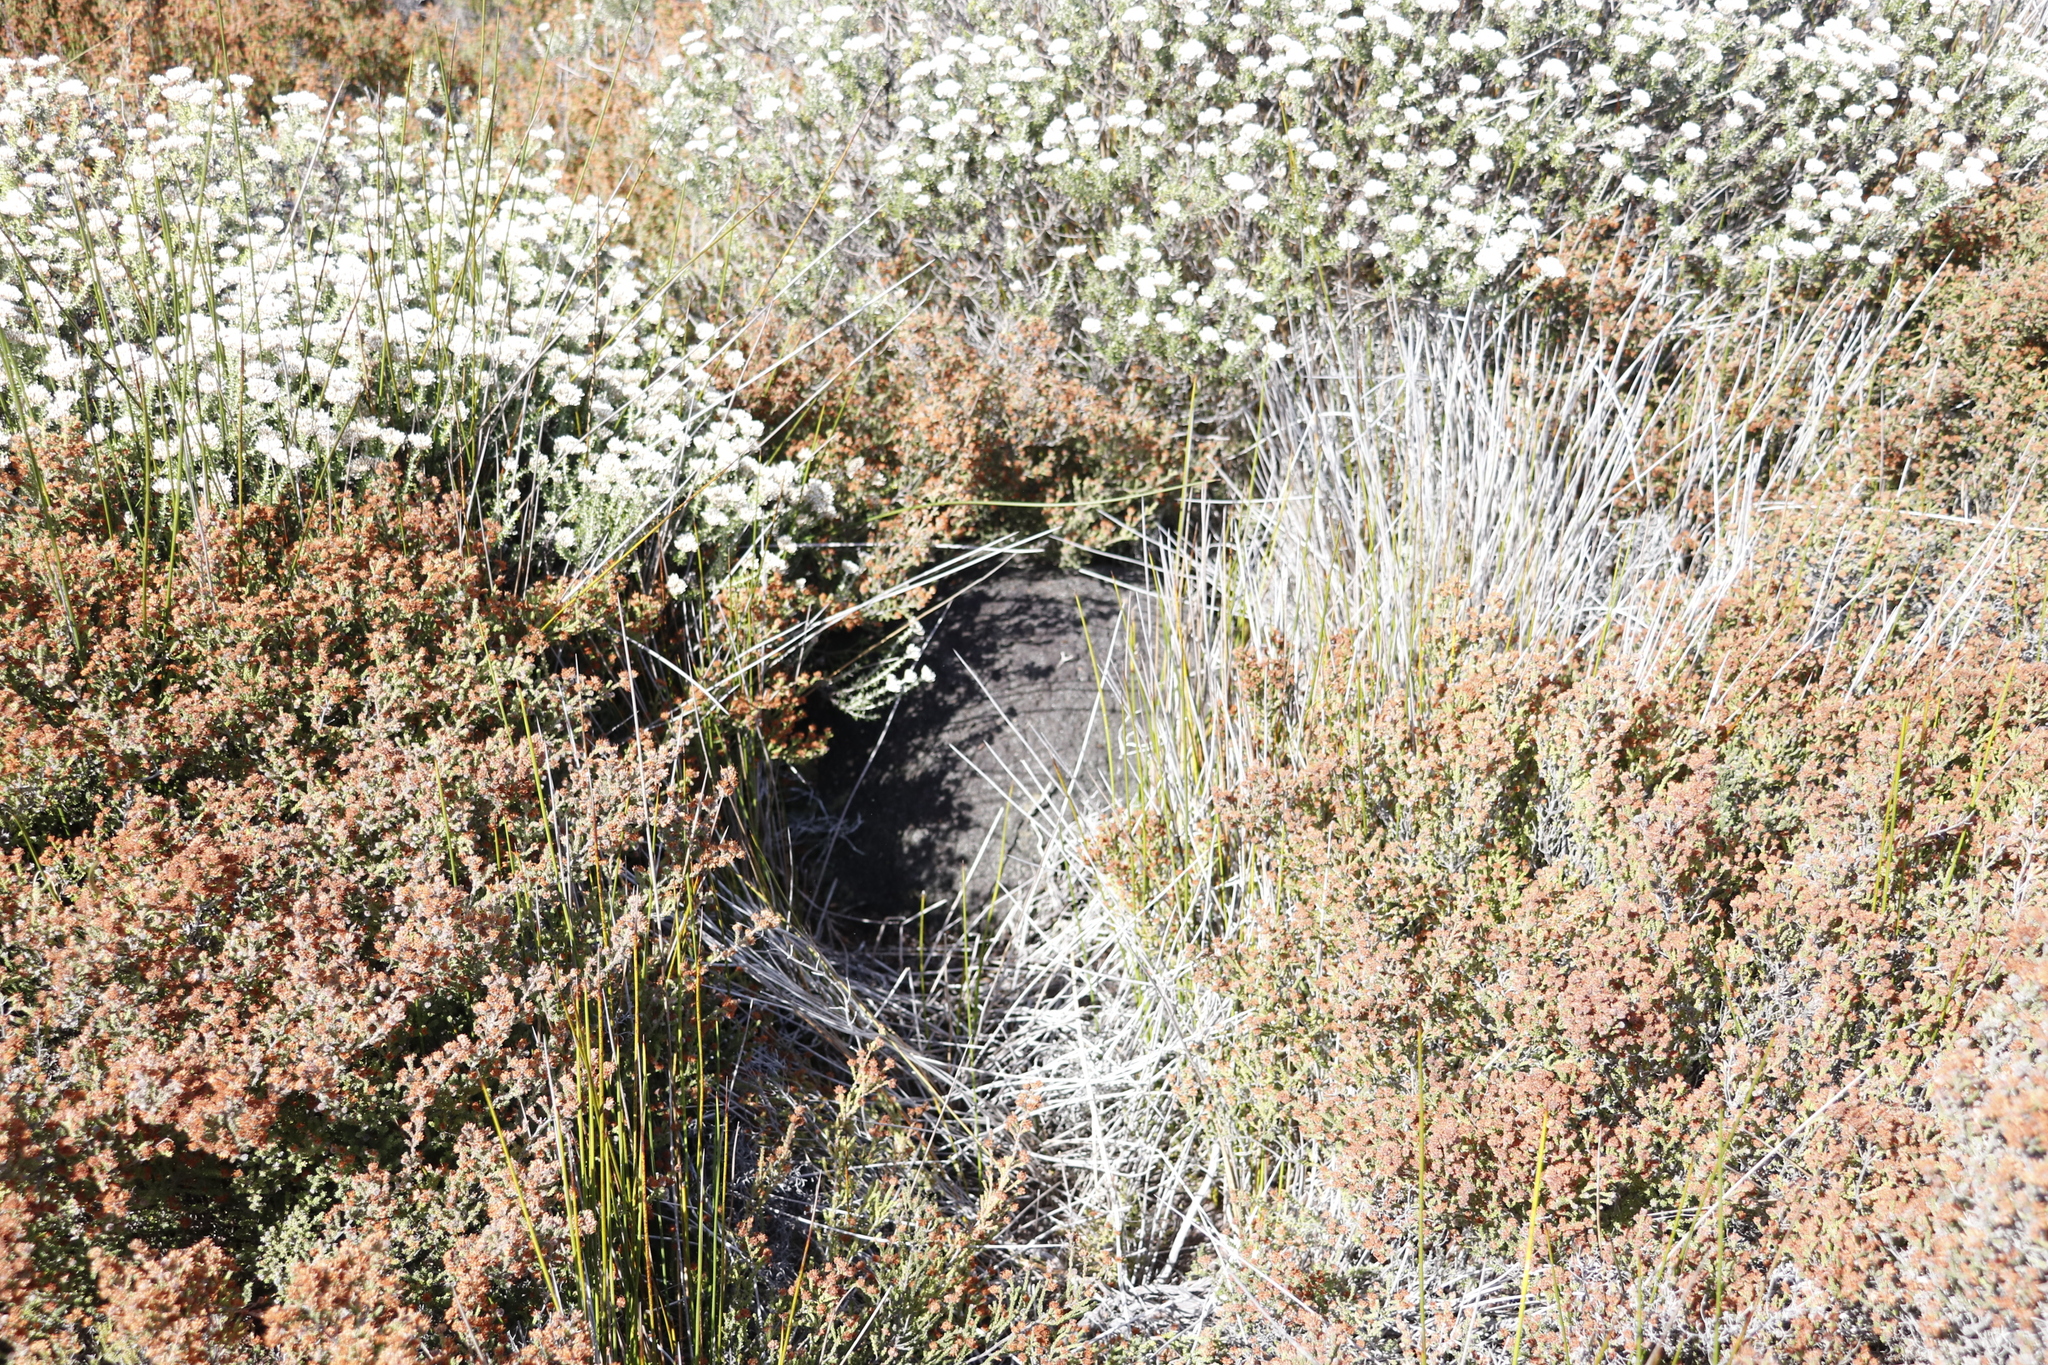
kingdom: Animalia
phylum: Arthropoda
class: Insecta
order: Blattodea
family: Termitidae
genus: Amitermes
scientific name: Amitermes hastatus
